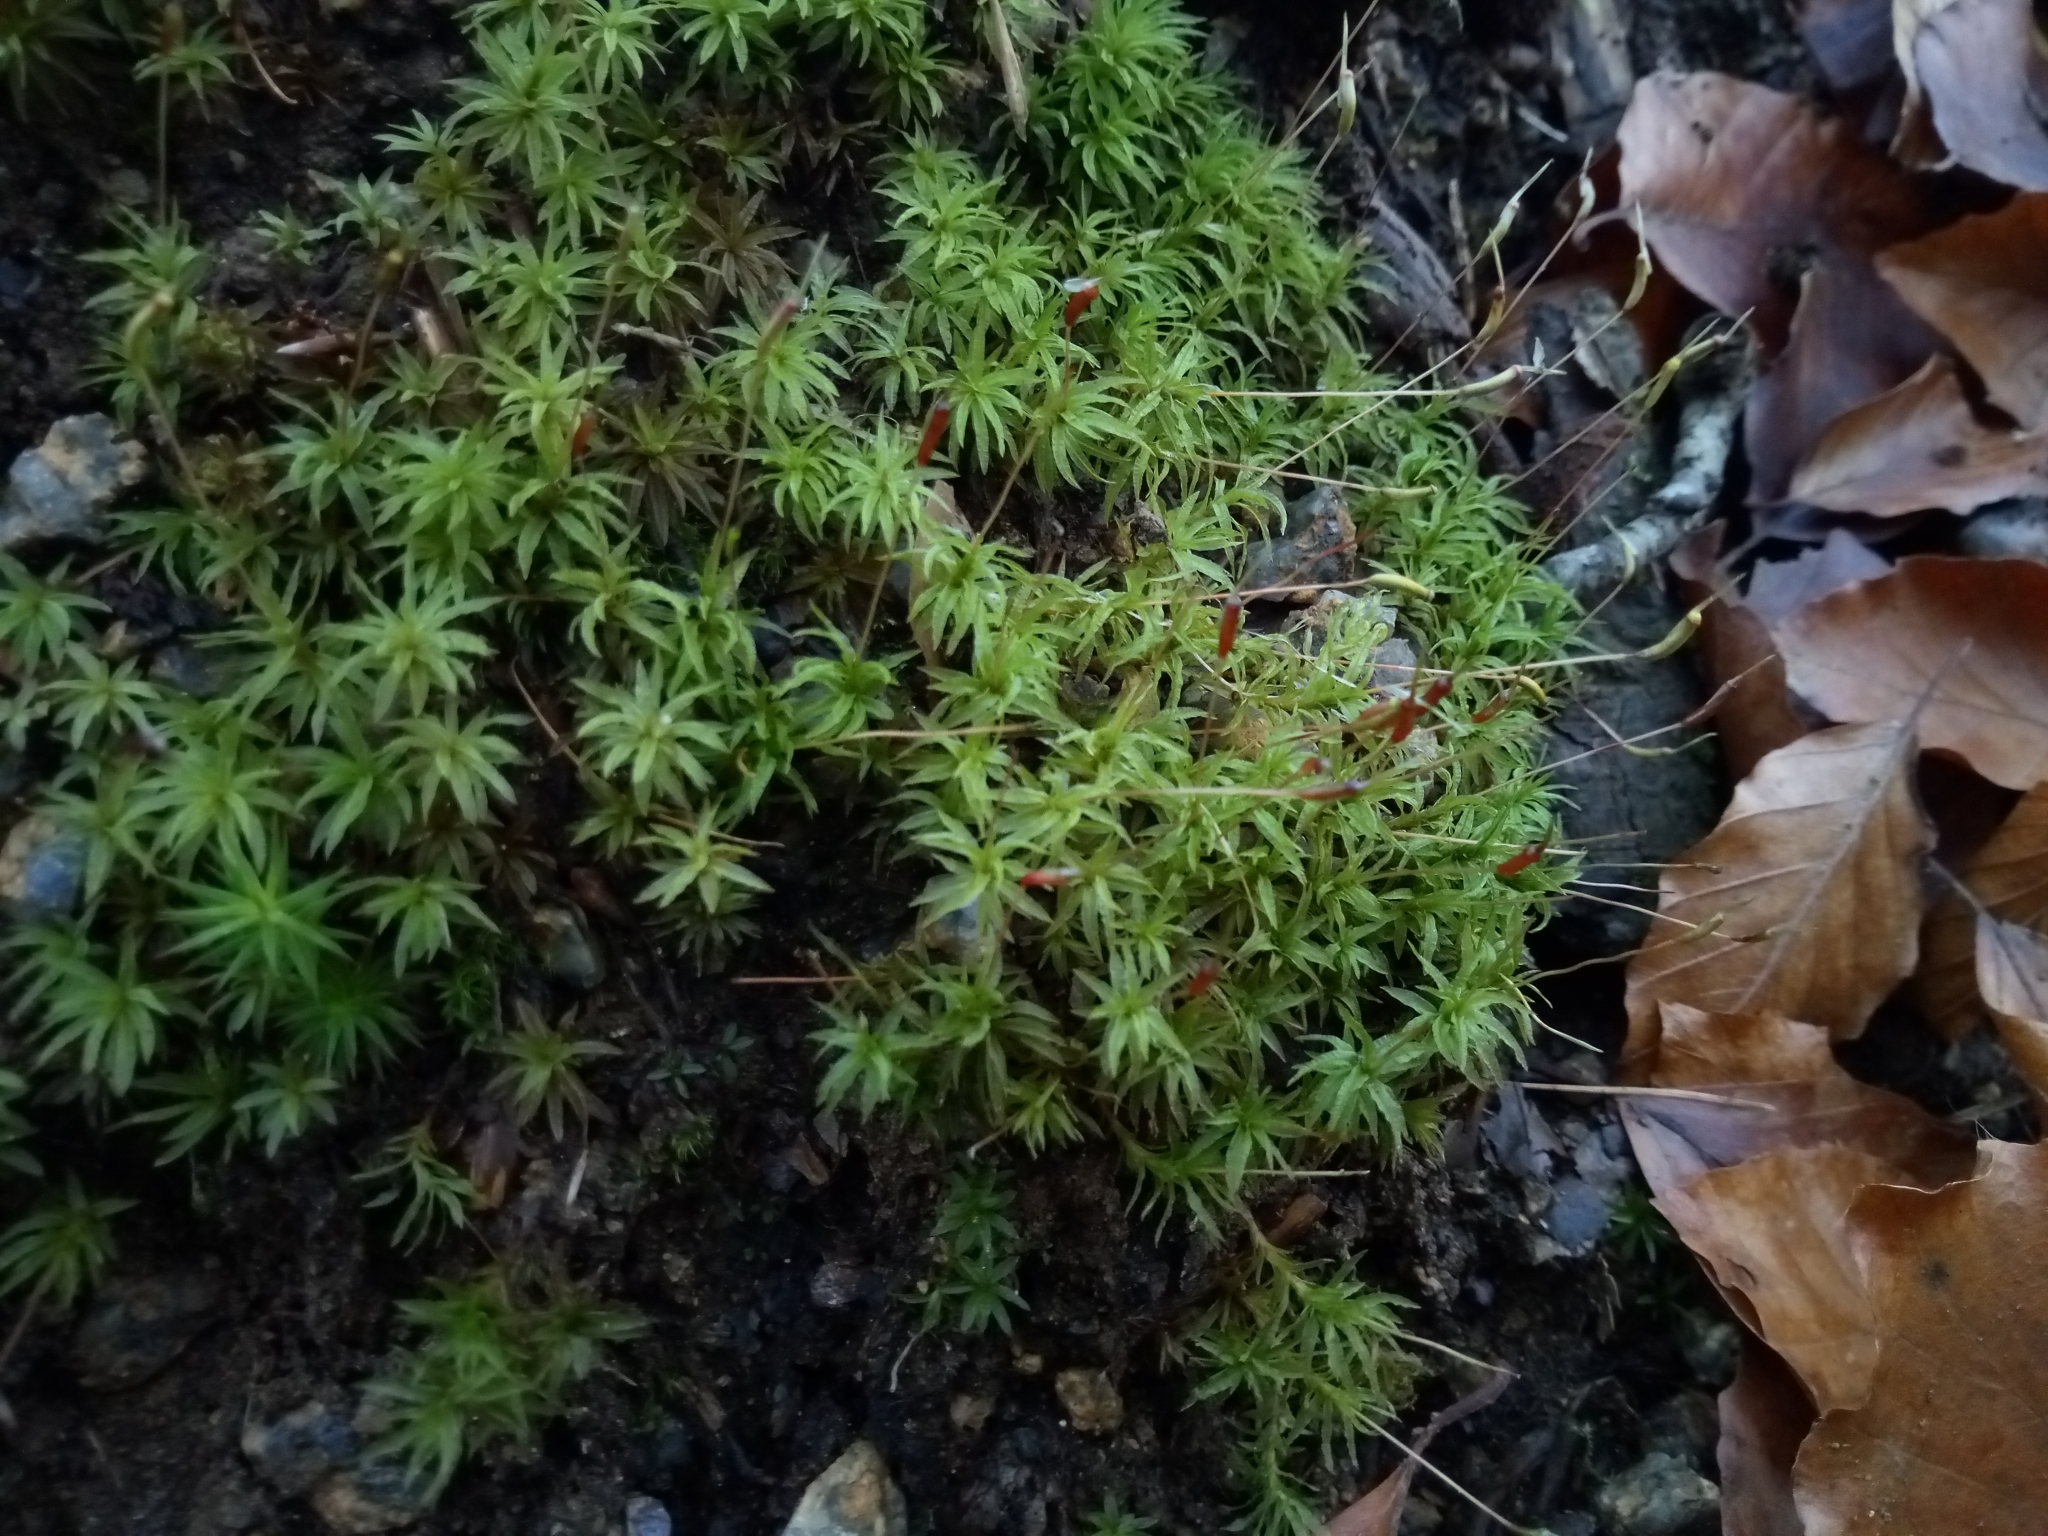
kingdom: Plantae
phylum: Bryophyta
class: Polytrichopsida
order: Polytrichales
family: Polytrichaceae
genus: Atrichum
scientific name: Atrichum undulatum
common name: Common smoothcap
